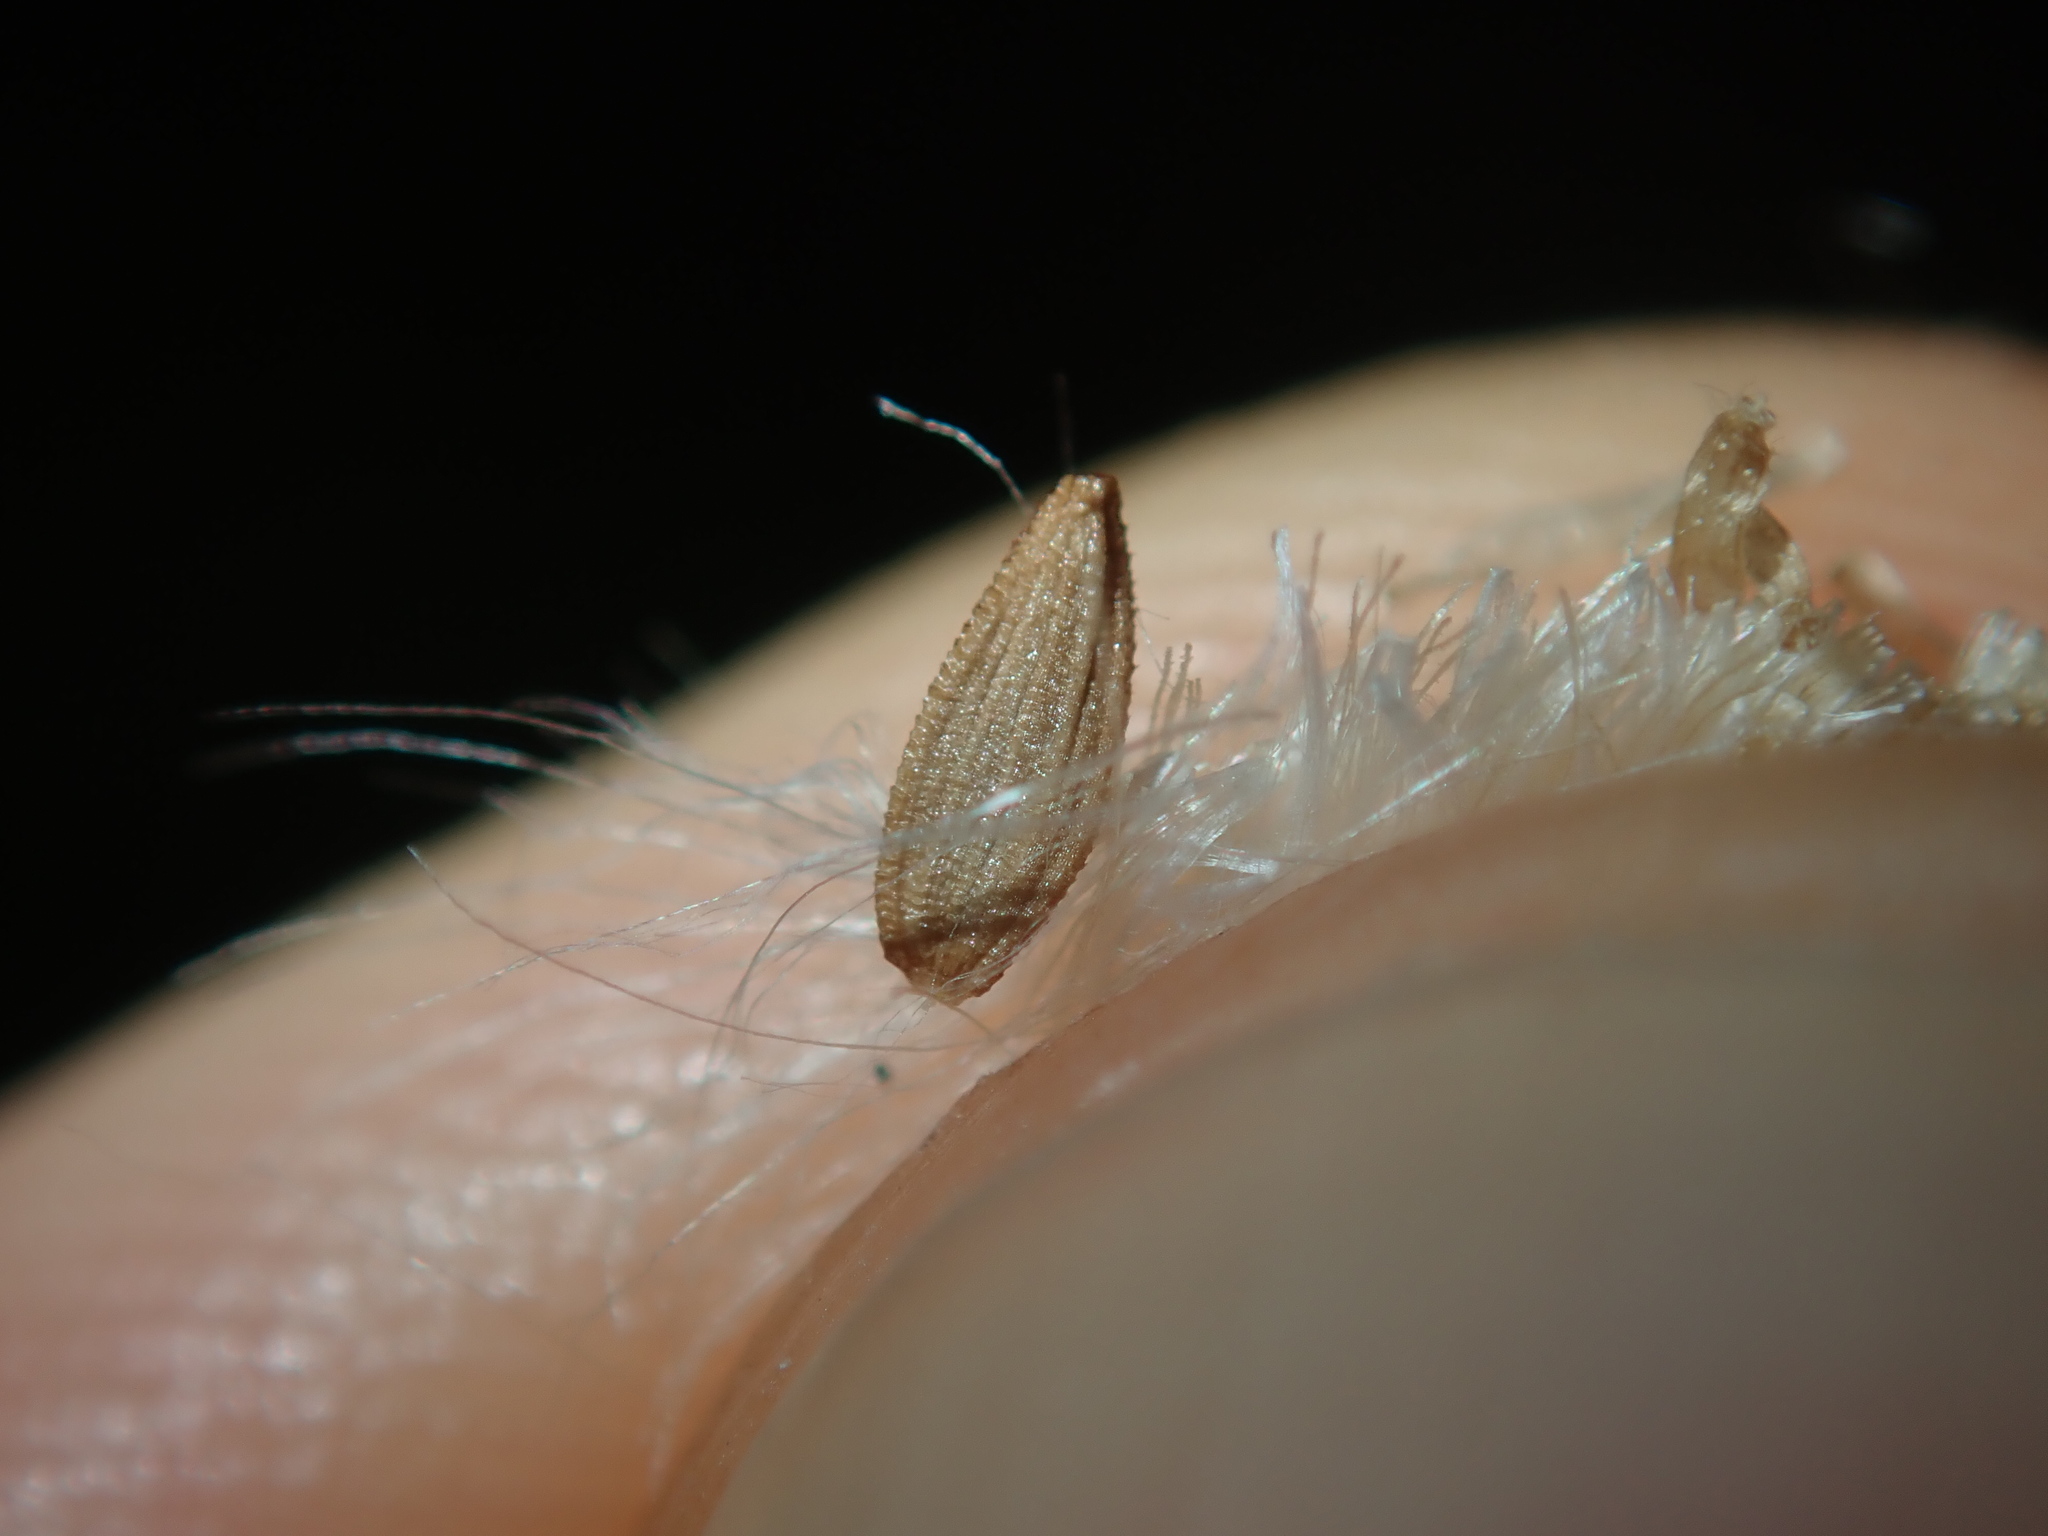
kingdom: Plantae
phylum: Tracheophyta
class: Magnoliopsida
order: Asterales
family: Asteraceae
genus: Sonchus
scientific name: Sonchus oleraceus
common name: Common sowthistle
